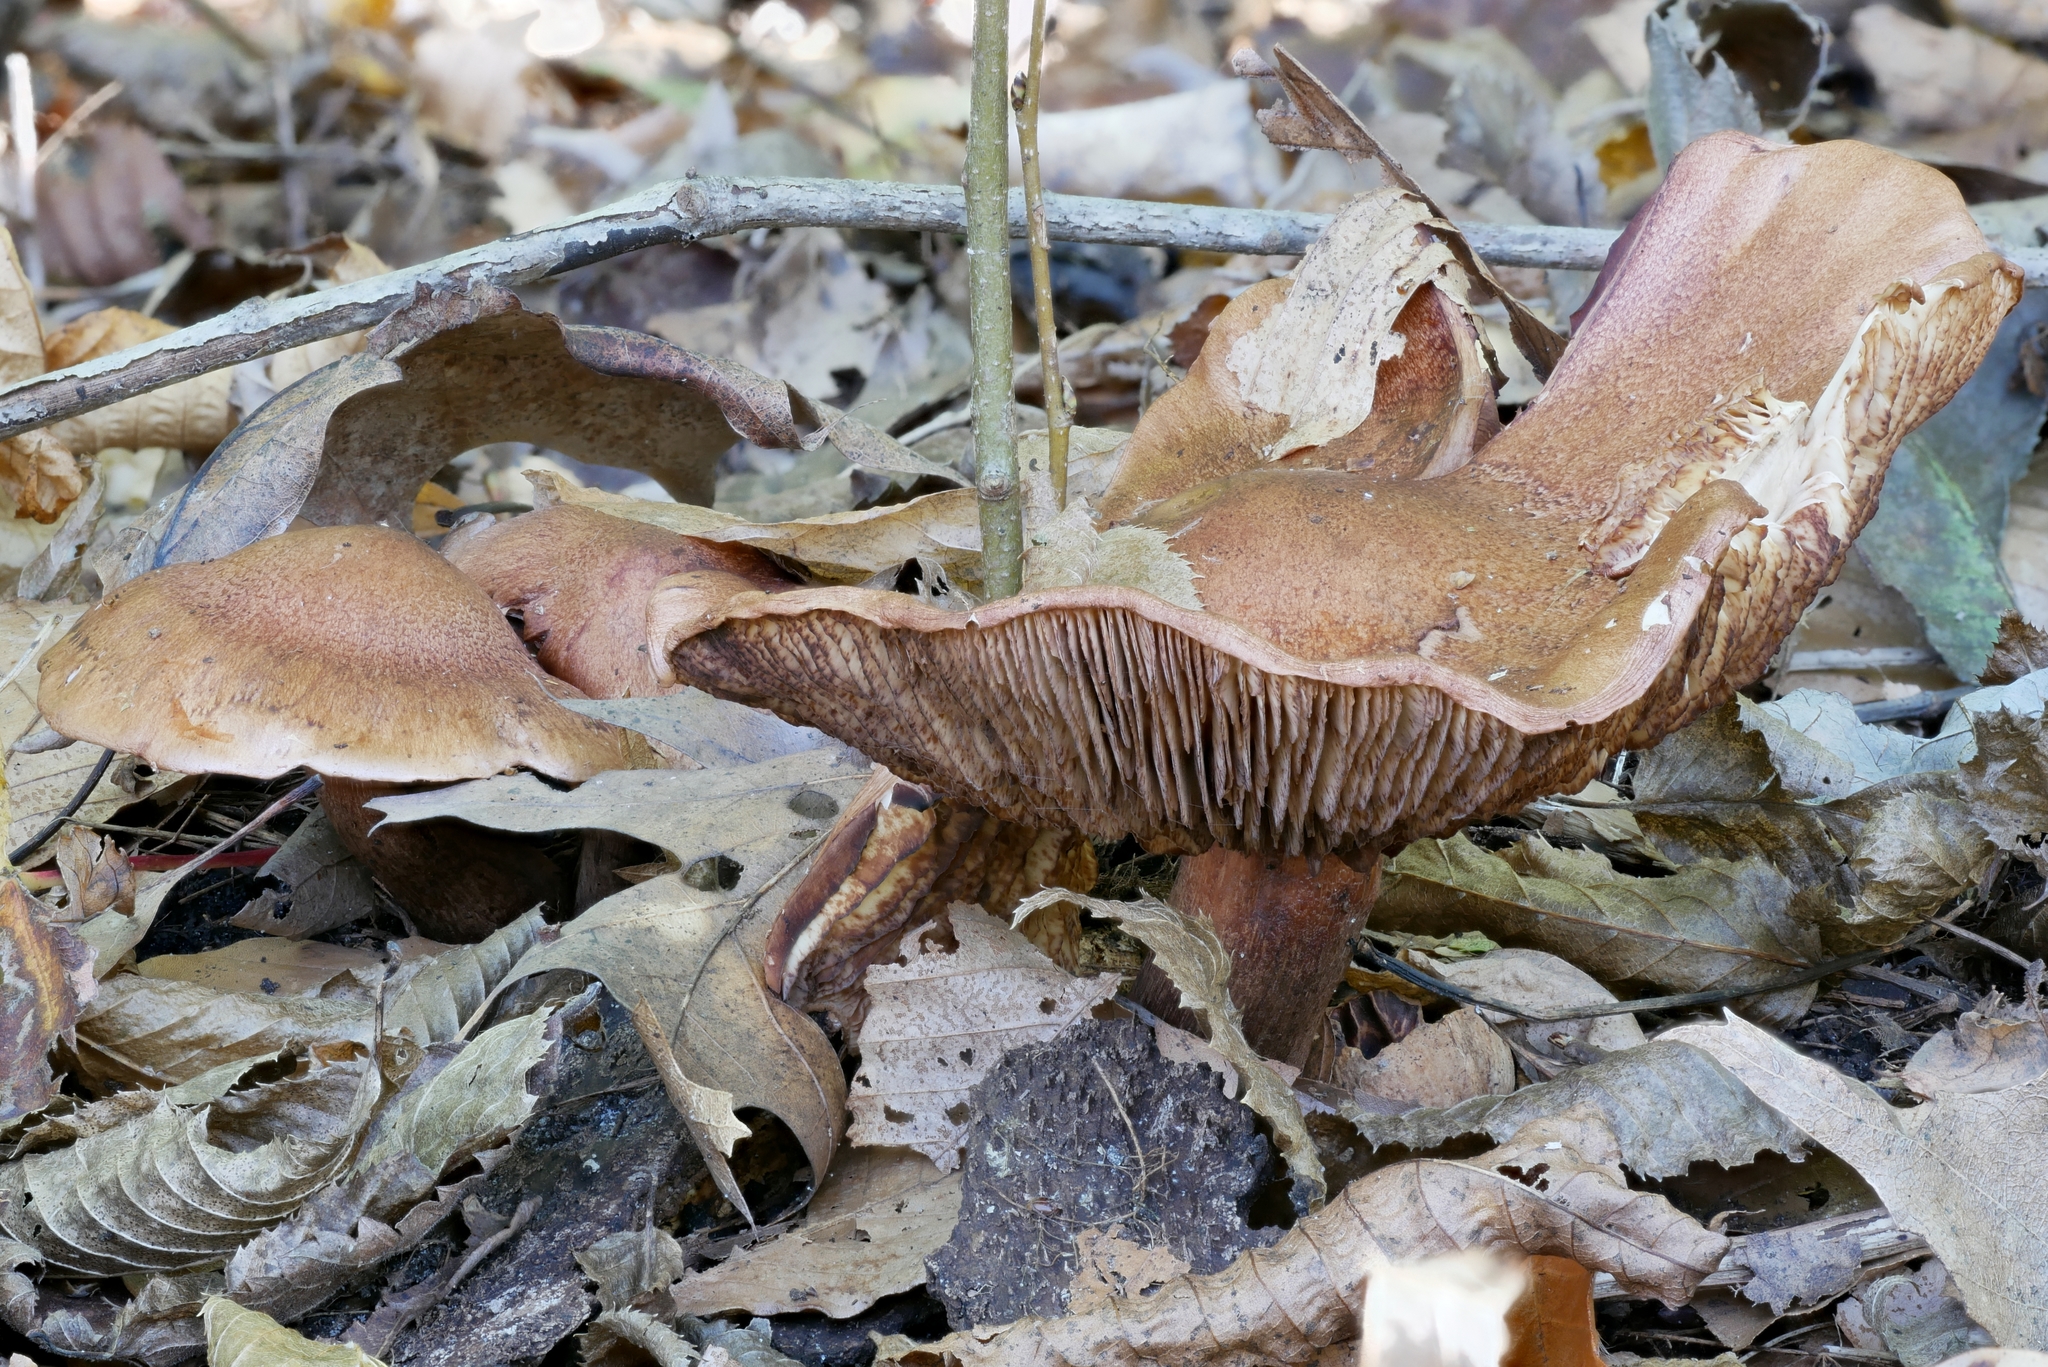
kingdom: Fungi
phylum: Basidiomycota
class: Agaricomycetes
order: Agaricales
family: Tricholomataceae
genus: Tricholoma
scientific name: Tricholoma fulvum
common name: Birch knight
